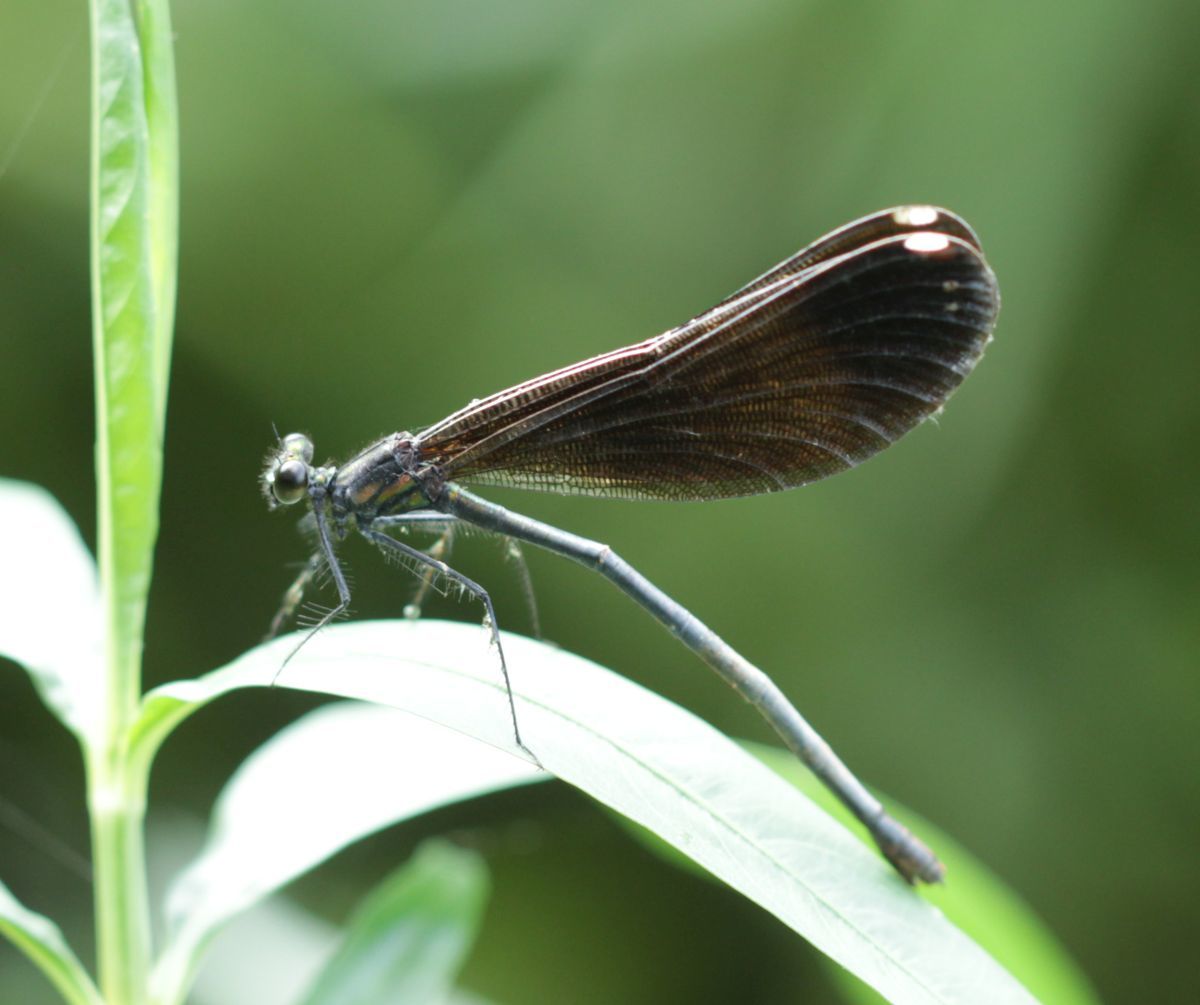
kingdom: Animalia
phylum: Arthropoda
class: Insecta
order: Odonata
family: Calopterygidae
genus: Calopteryx
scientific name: Calopteryx maculata
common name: Ebony jewelwing
